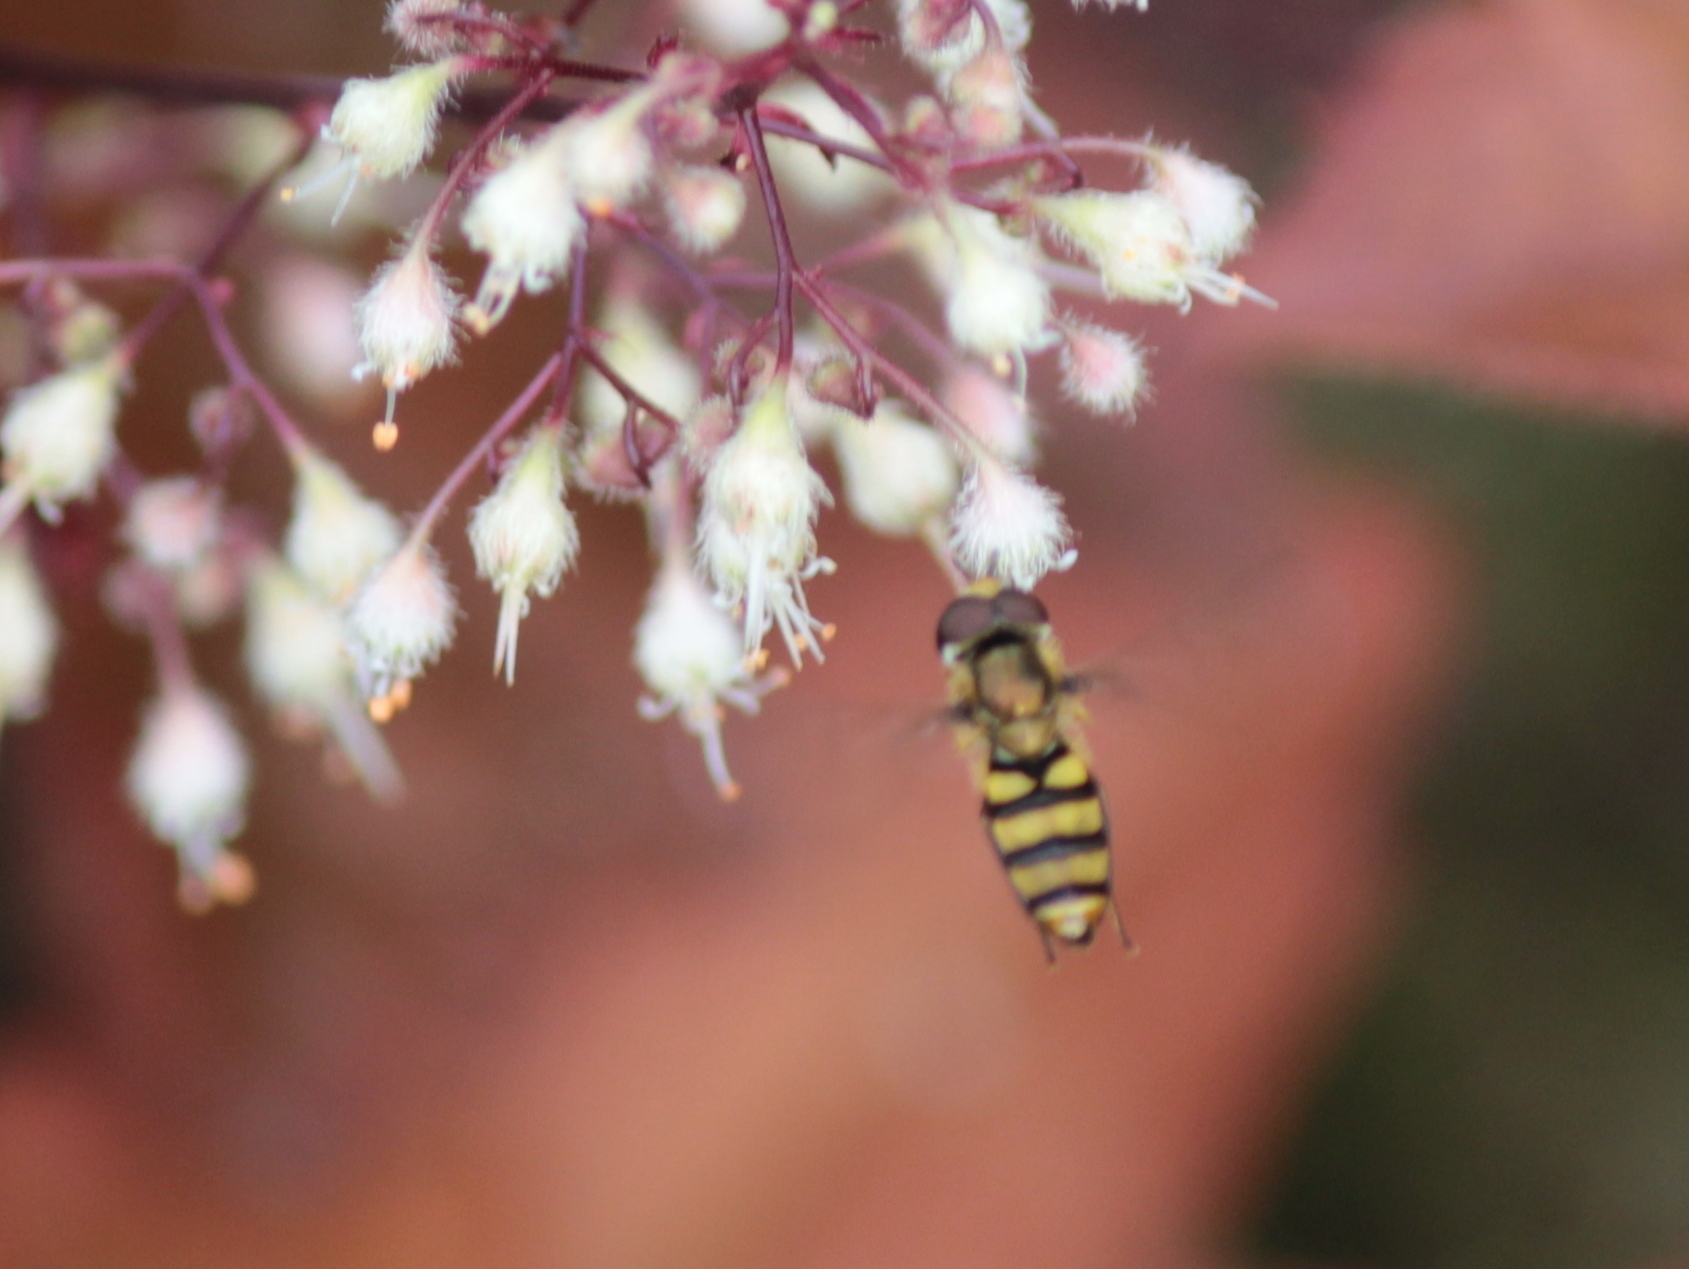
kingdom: Animalia
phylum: Arthropoda
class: Insecta
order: Diptera
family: Syrphidae
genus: Eupeodes
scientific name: Eupeodes
